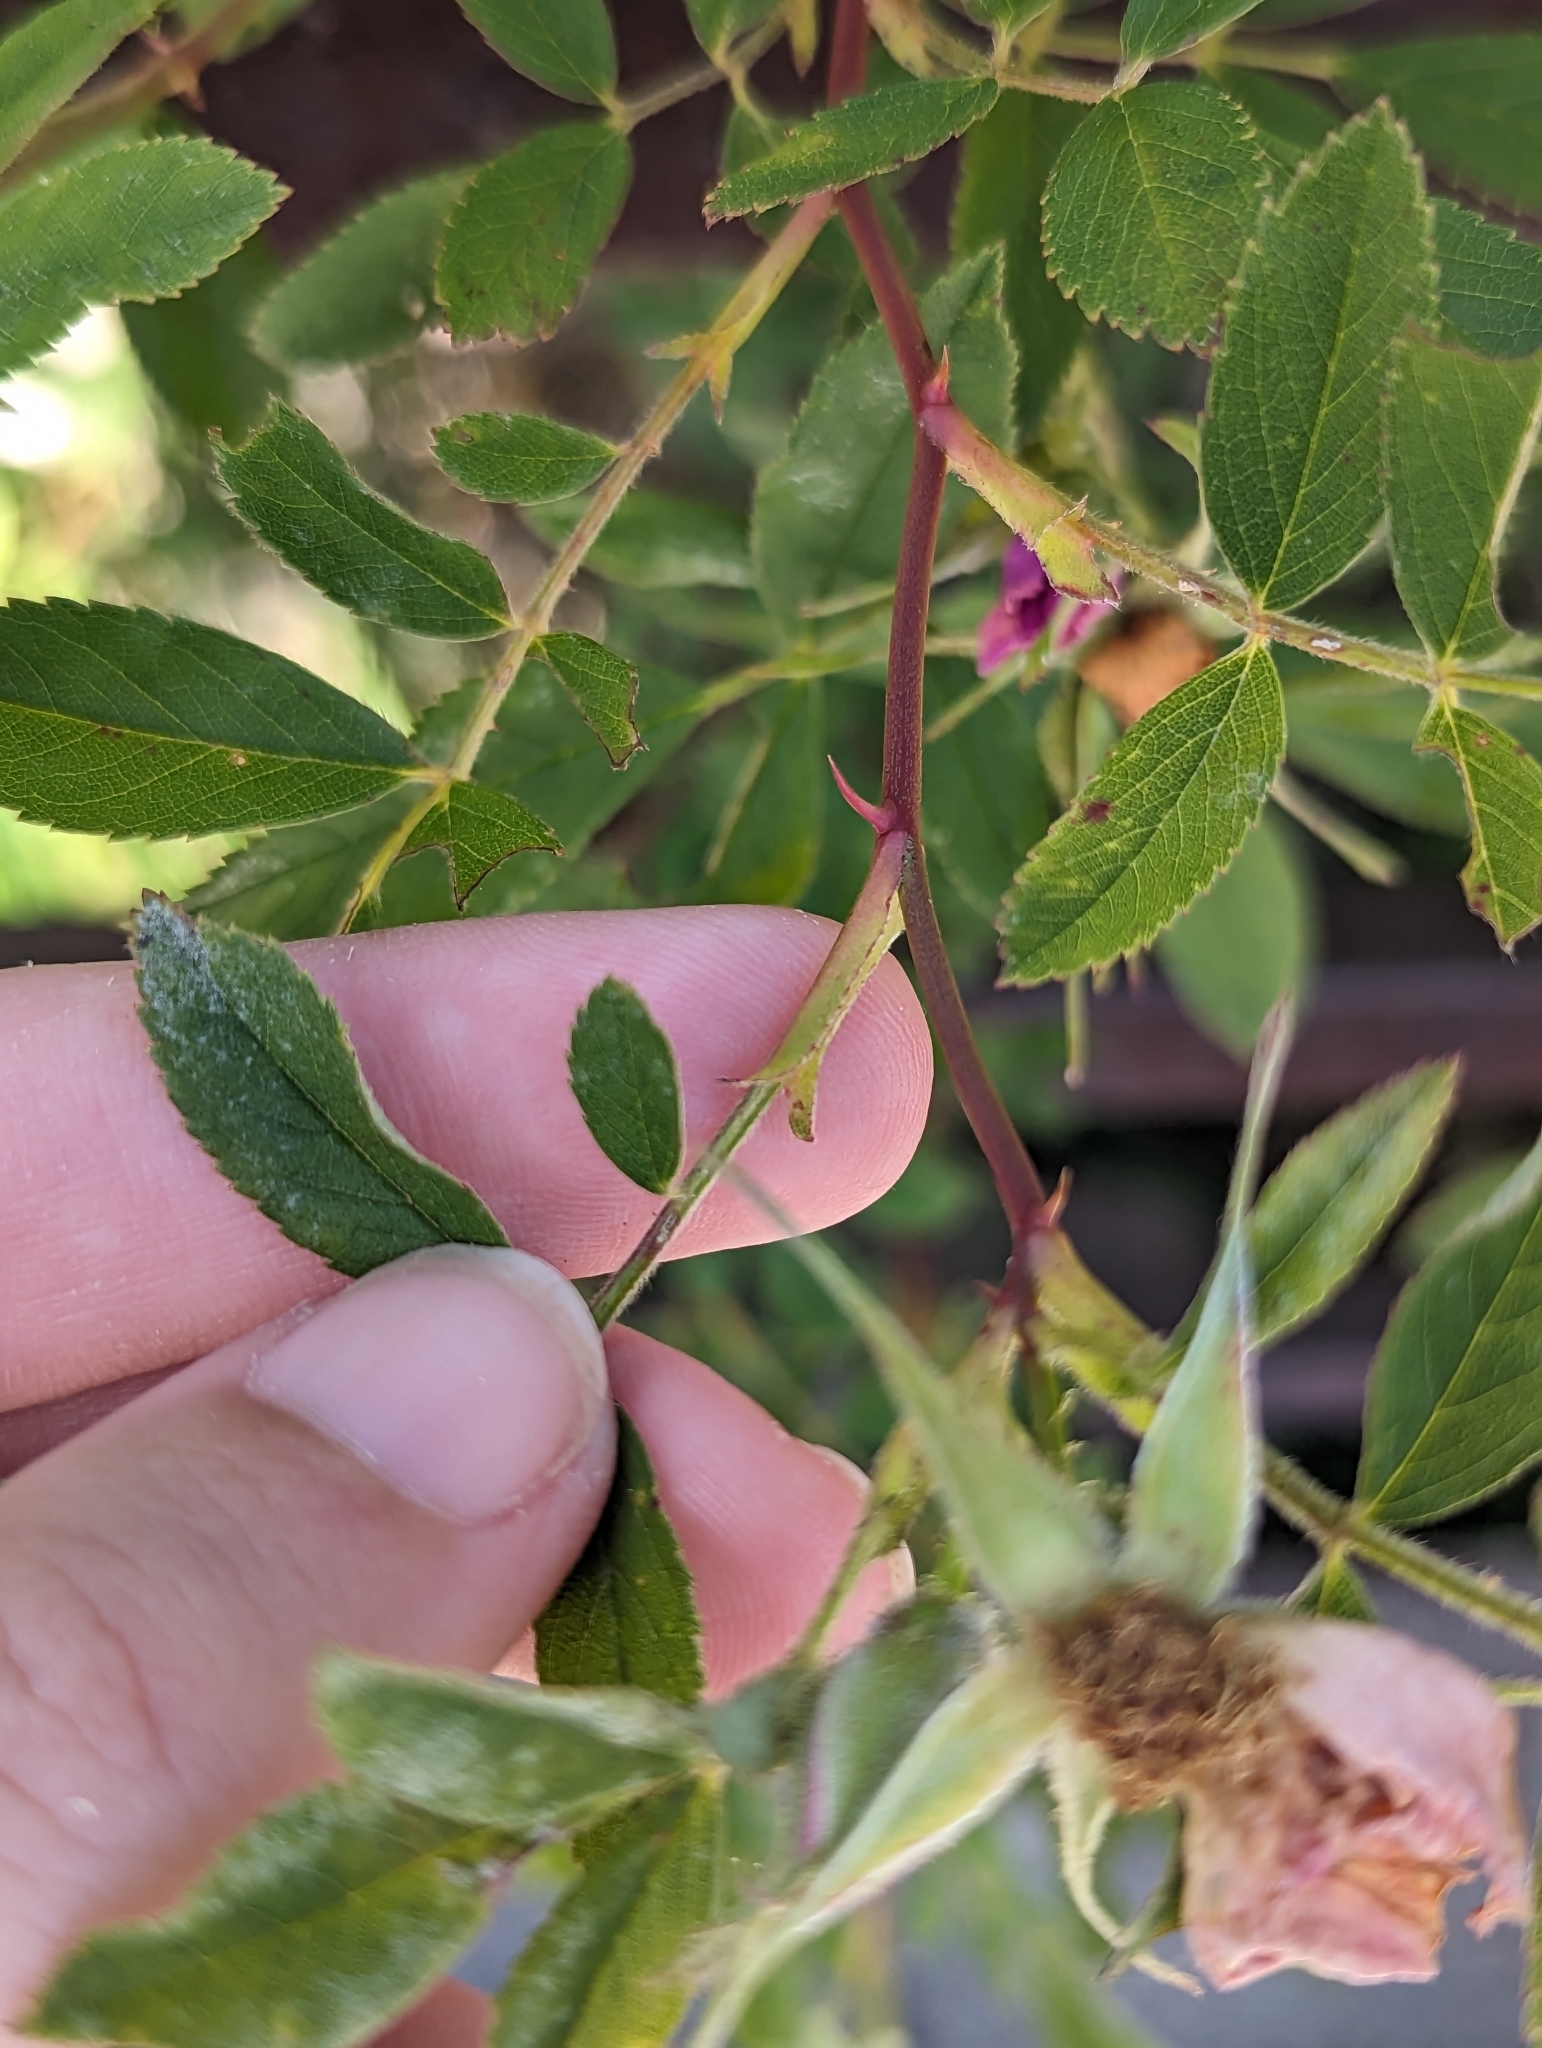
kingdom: Plantae
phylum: Tracheophyta
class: Magnoliopsida
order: Rosales
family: Rosaceae
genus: Rosa
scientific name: Rosa palustris
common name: Swamp rose
